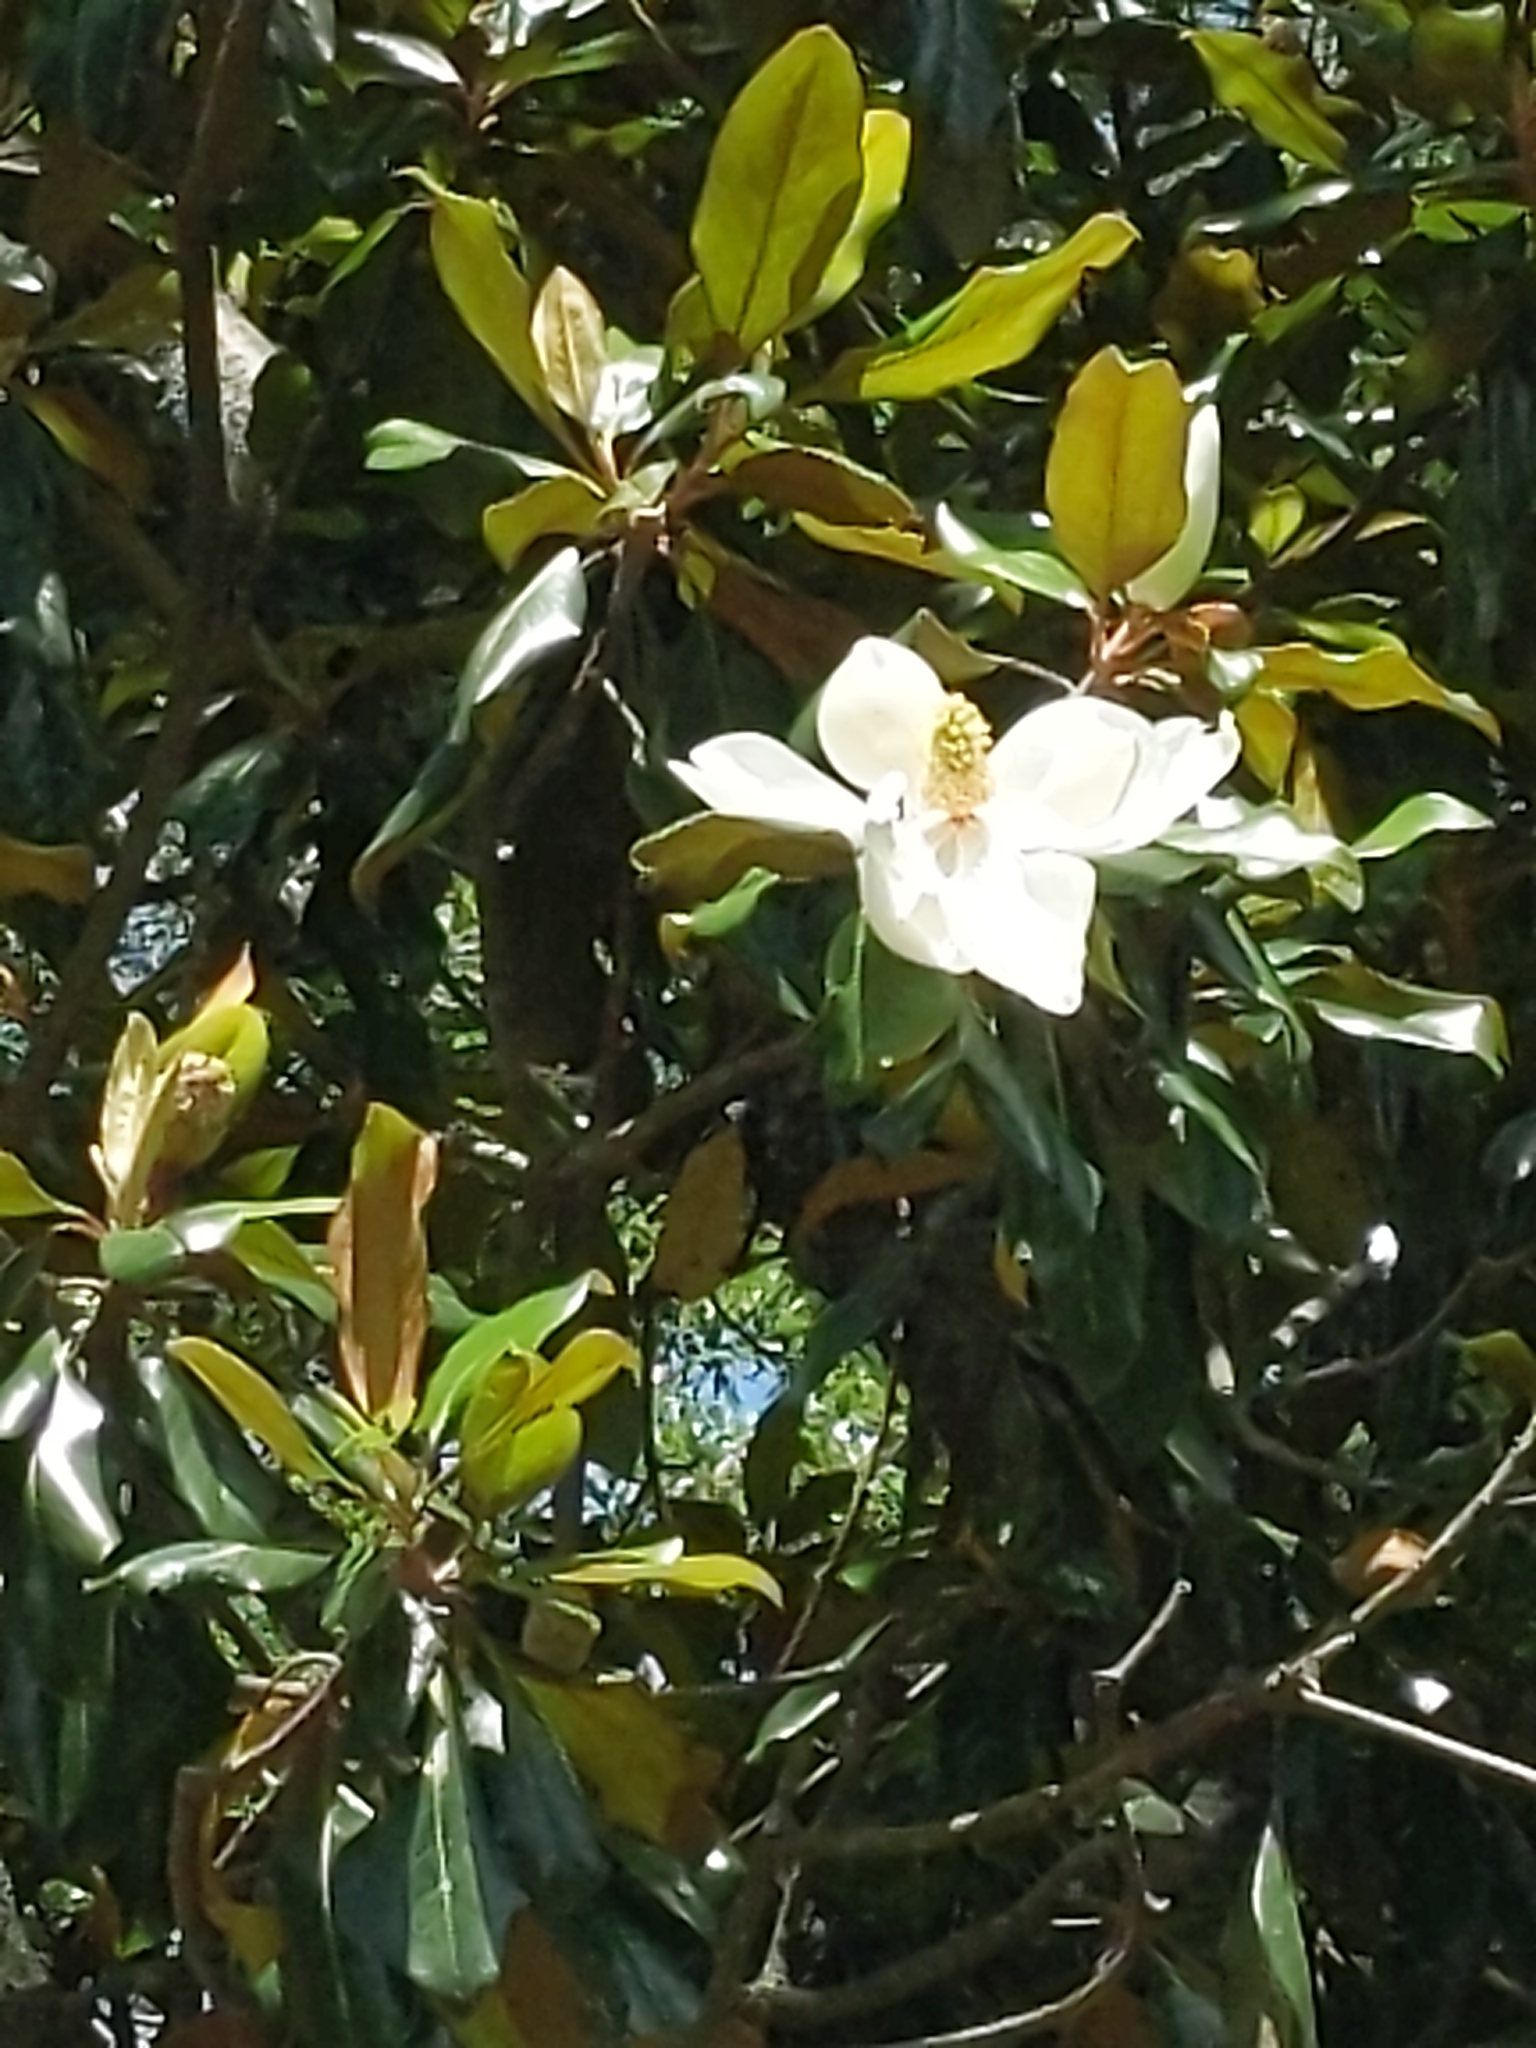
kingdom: Plantae
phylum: Tracheophyta
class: Magnoliopsida
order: Magnoliales
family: Magnoliaceae
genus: Magnolia
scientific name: Magnolia grandiflora
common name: Southern magnolia
